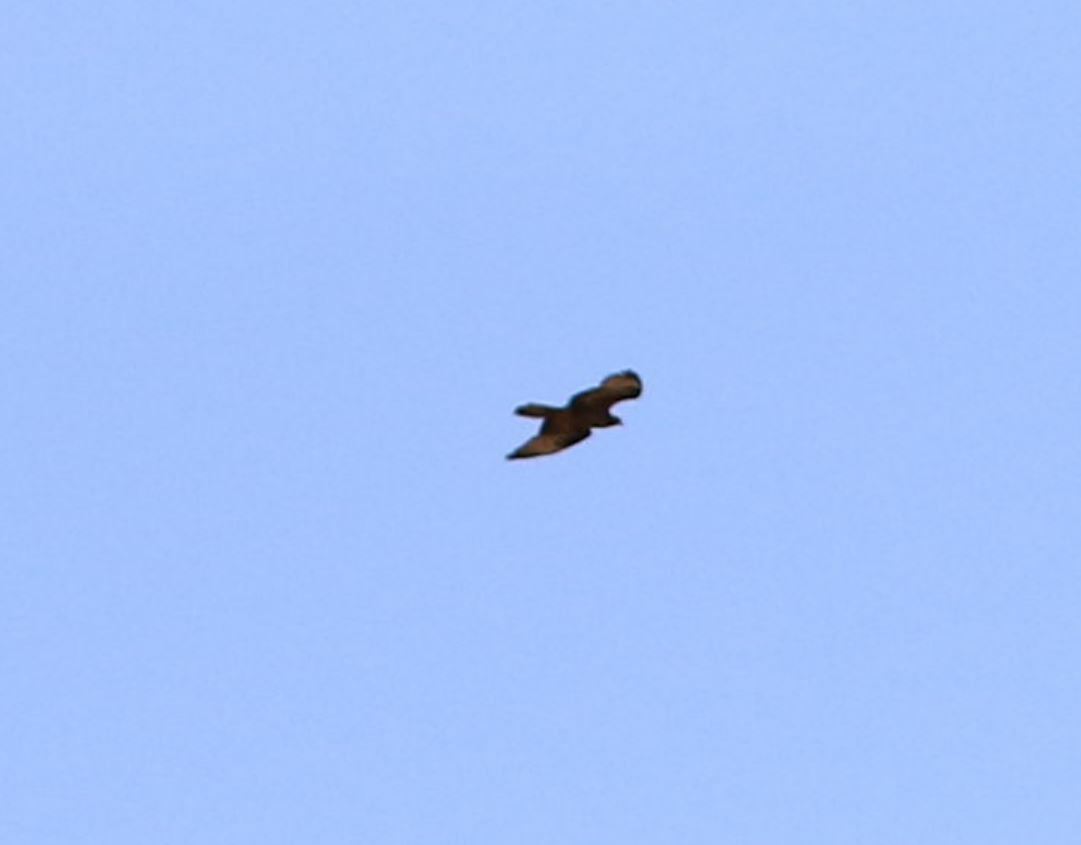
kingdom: Animalia
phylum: Chordata
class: Aves
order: Accipitriformes
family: Accipitridae
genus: Pernis
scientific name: Pernis apivorus
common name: European honey buzzard
